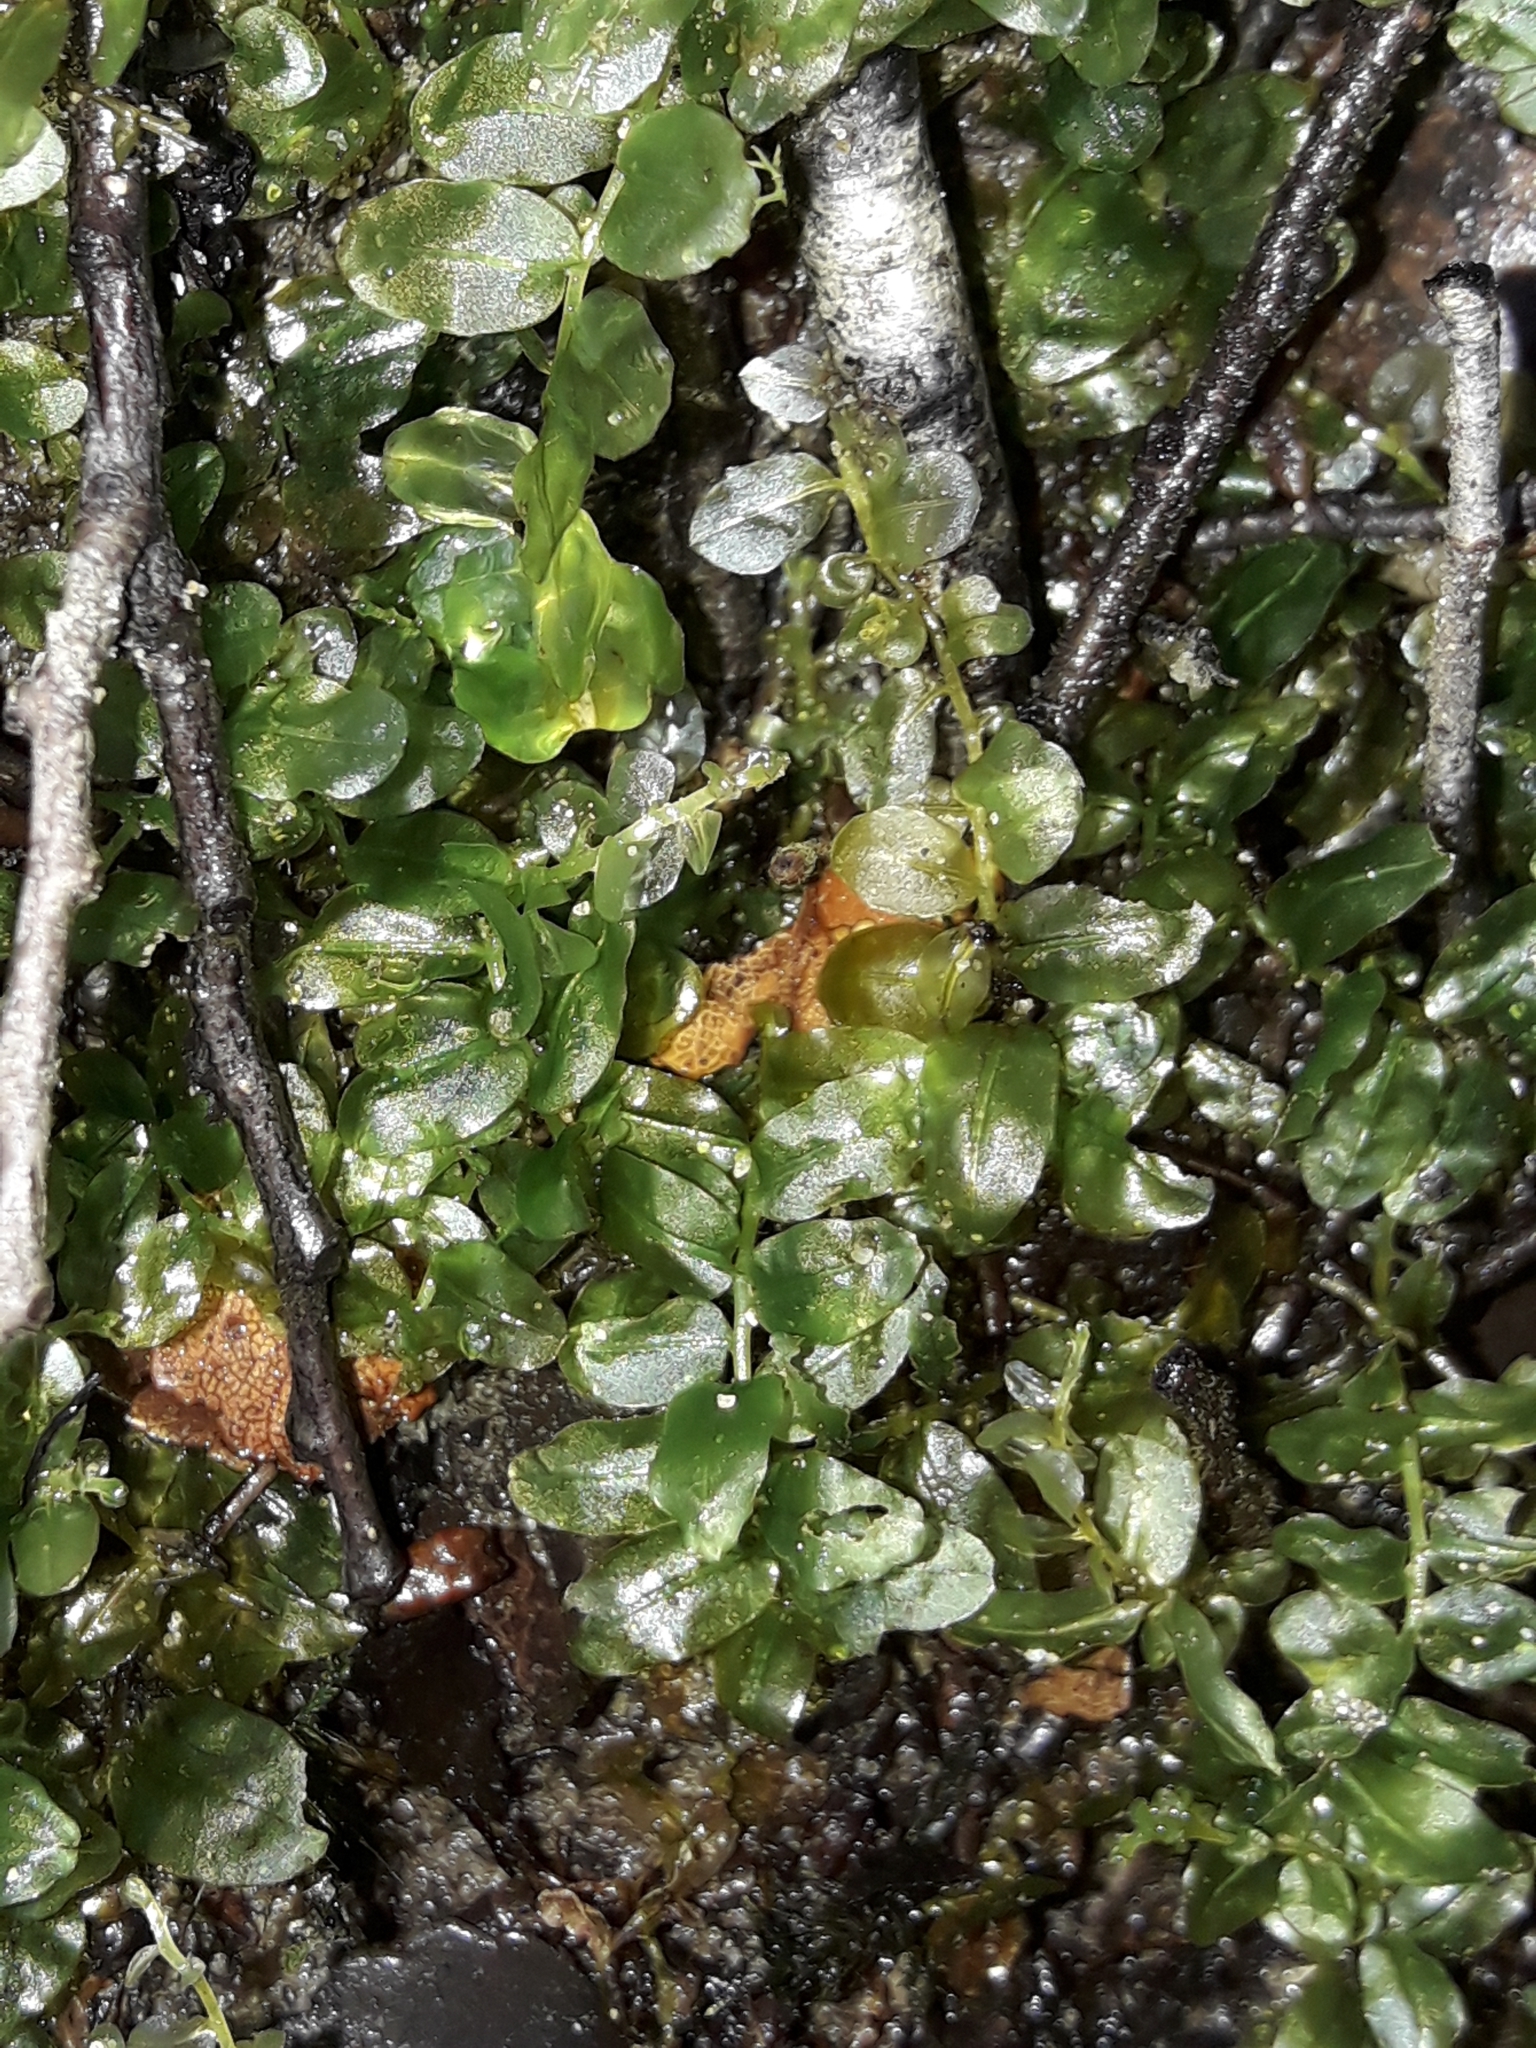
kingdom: Plantae
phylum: Bryophyta
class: Bryopsida
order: Bryales
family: Mniaceae
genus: Plagiomnium
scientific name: Plagiomnium novae-zealandiae
